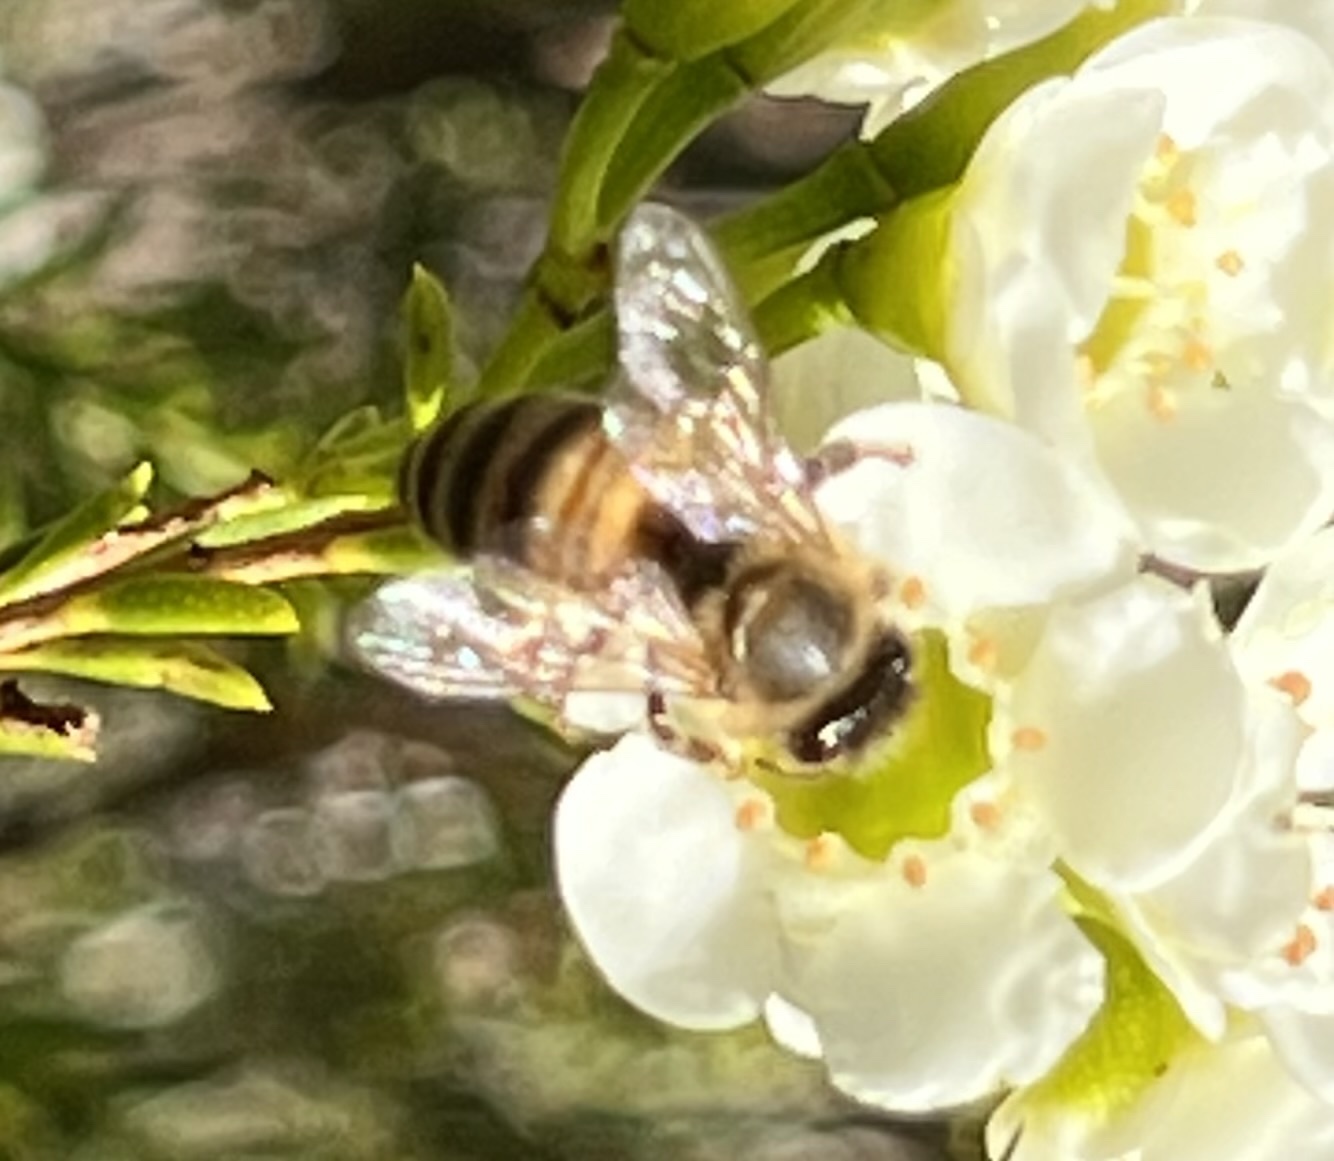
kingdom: Animalia
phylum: Arthropoda
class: Insecta
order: Hymenoptera
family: Apidae
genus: Apis
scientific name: Apis mellifera
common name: Honey bee
